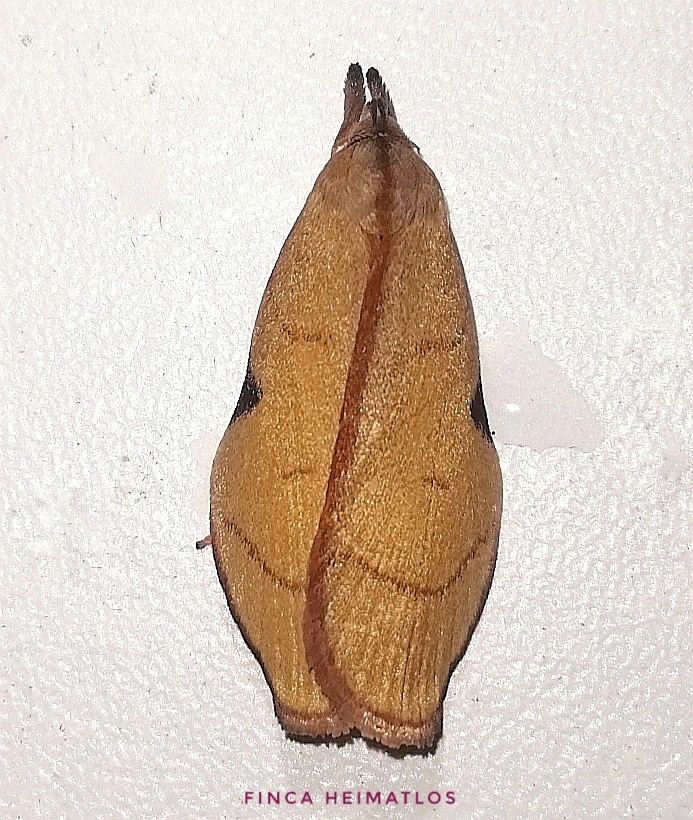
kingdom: Animalia
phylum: Arthropoda
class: Insecta
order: Lepidoptera
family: Depressariidae
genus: Loxotoma
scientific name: Loxotoma elegans
